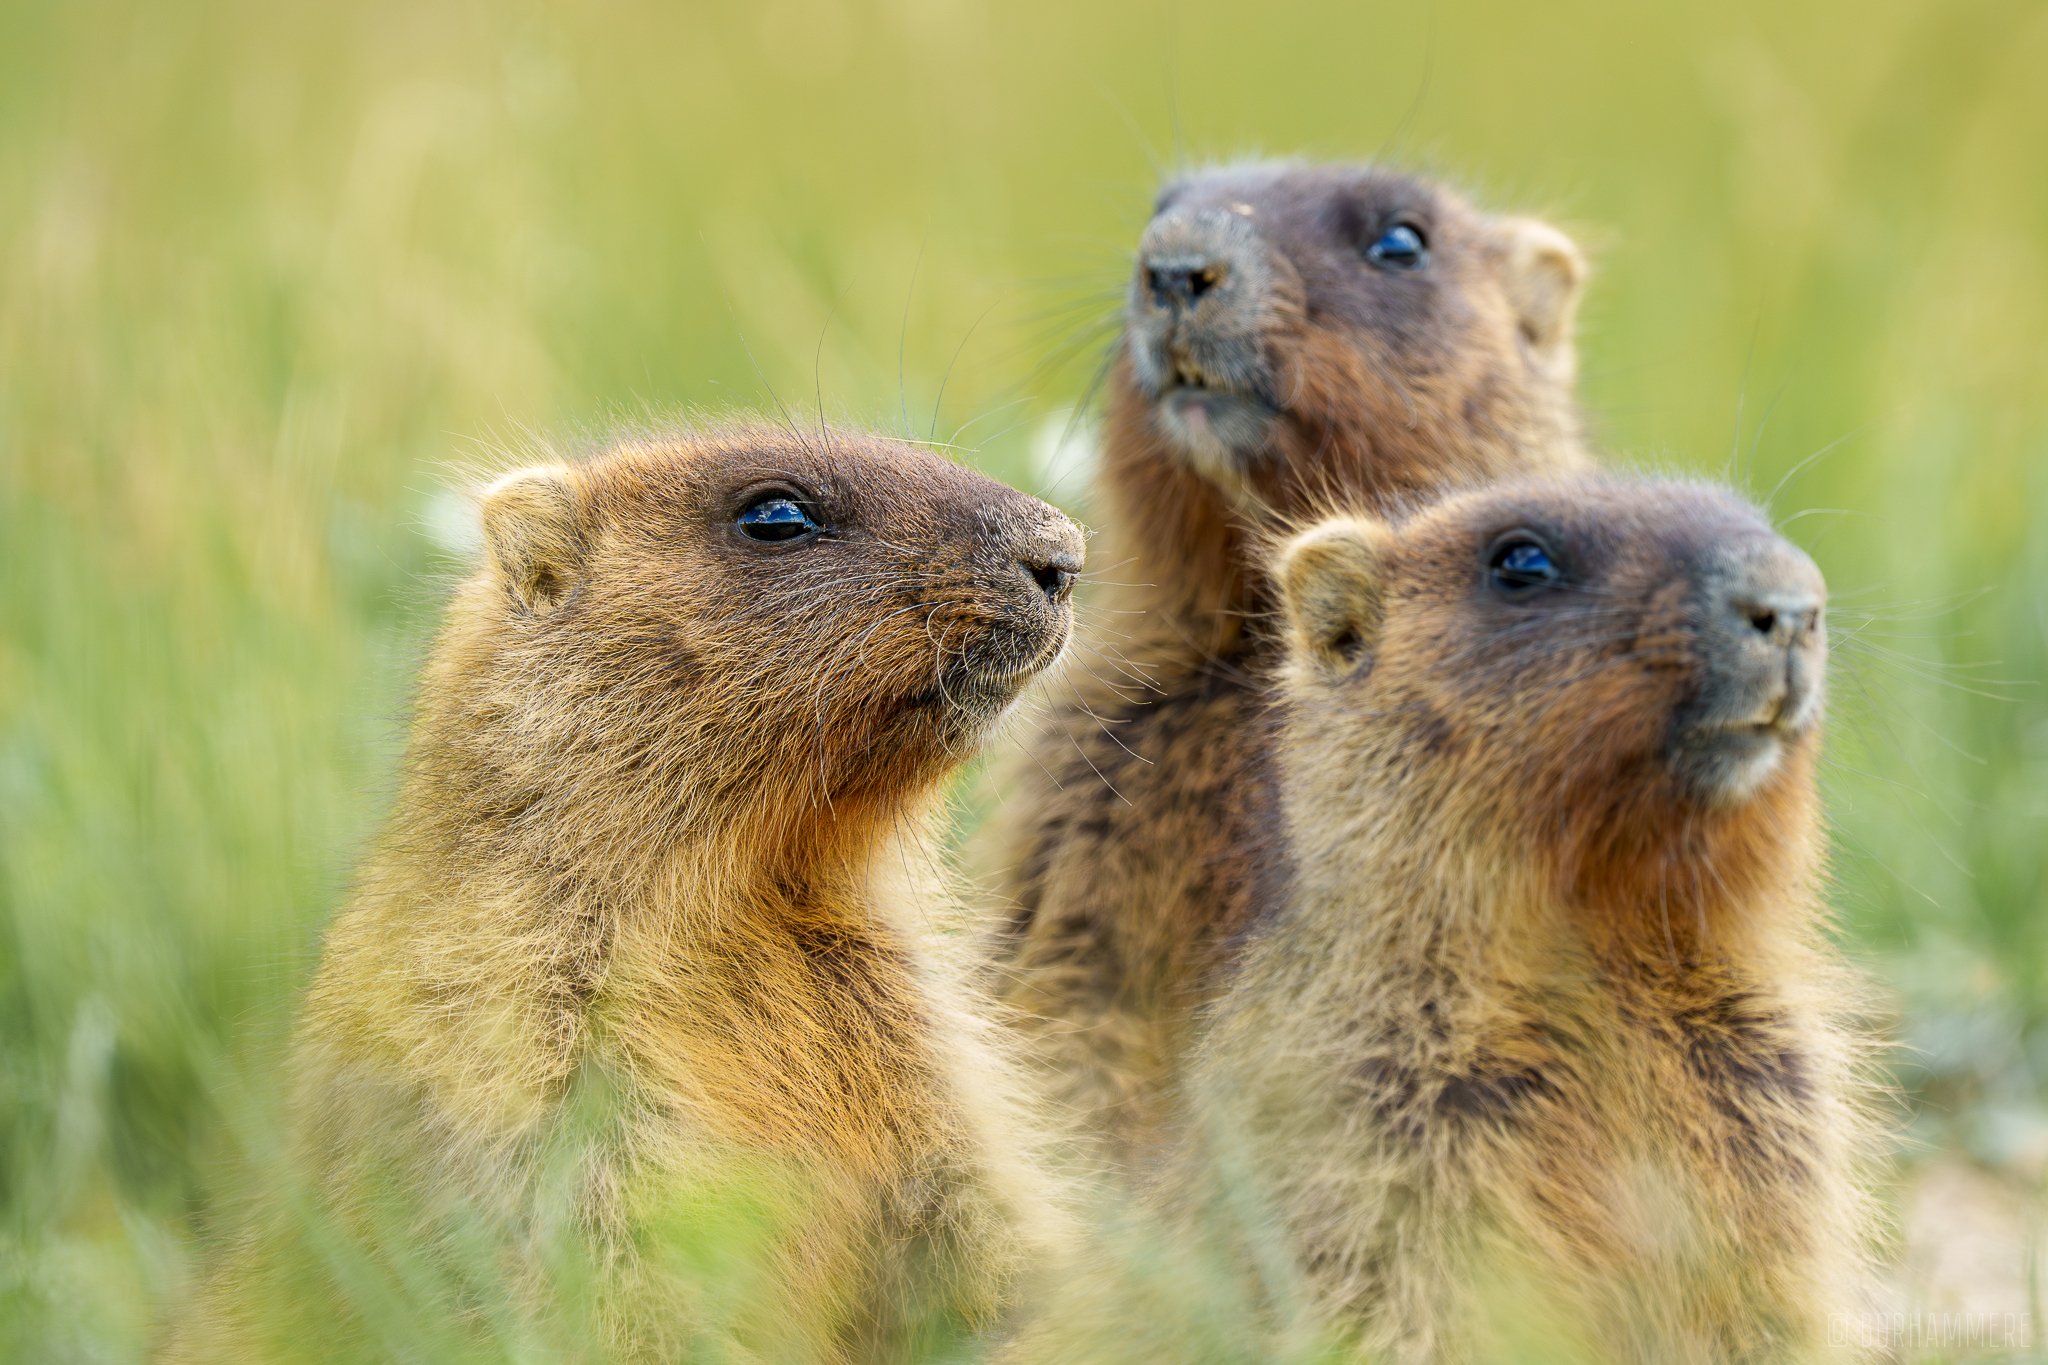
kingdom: Animalia
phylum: Chordata
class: Mammalia
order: Rodentia
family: Sciuridae
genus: Marmota
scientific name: Marmota bobak
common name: Bobak marmot
